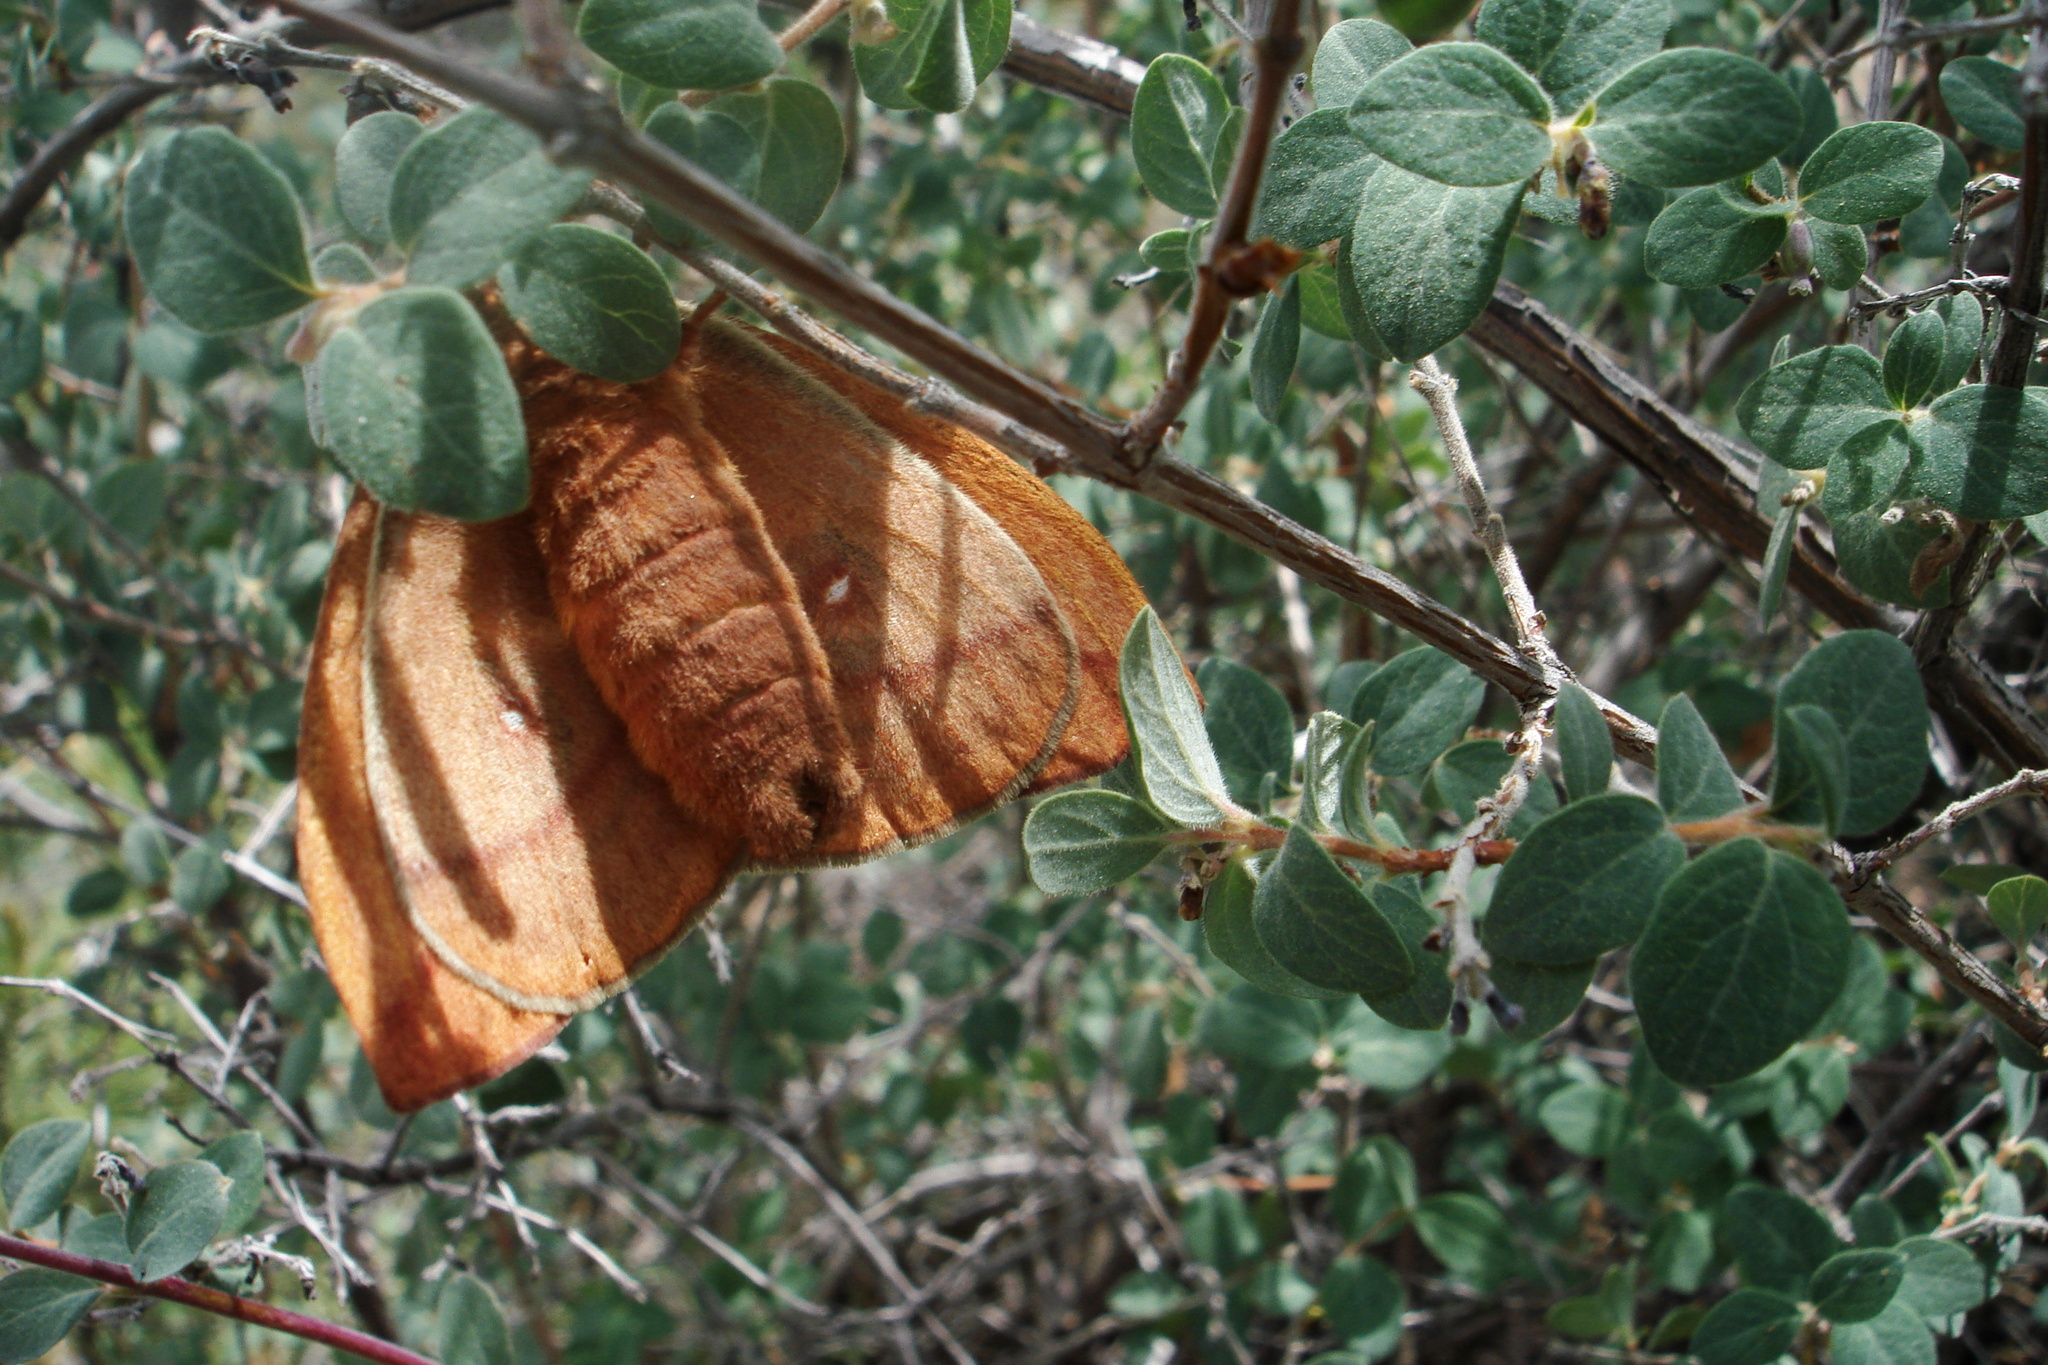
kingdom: Animalia
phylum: Arthropoda
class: Insecta
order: Lepidoptera
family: Saturniidae
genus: Automeris
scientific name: Automeris io
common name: Io moth
